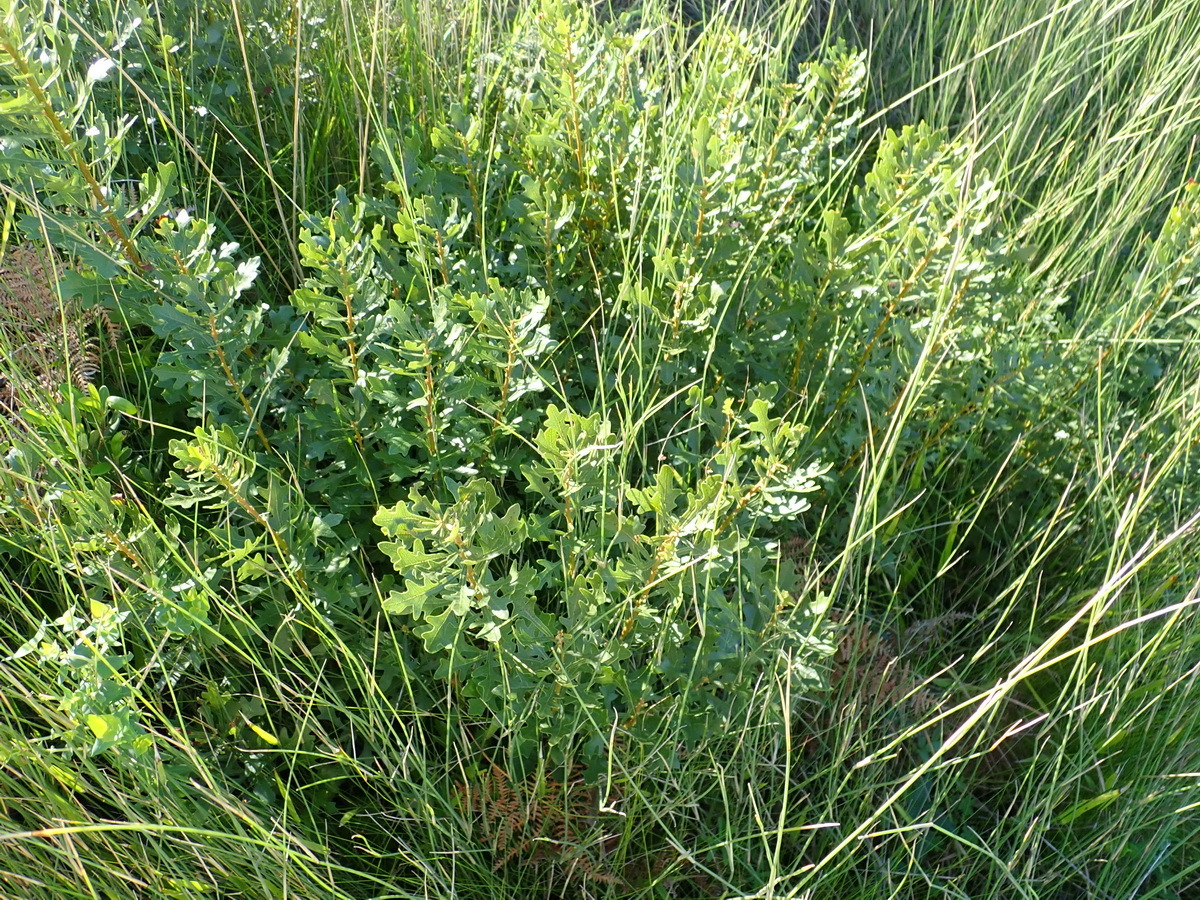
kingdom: Plantae
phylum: Tracheophyta
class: Magnoliopsida
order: Fagales
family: Myricaceae
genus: Morella
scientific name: Morella quercifolia
